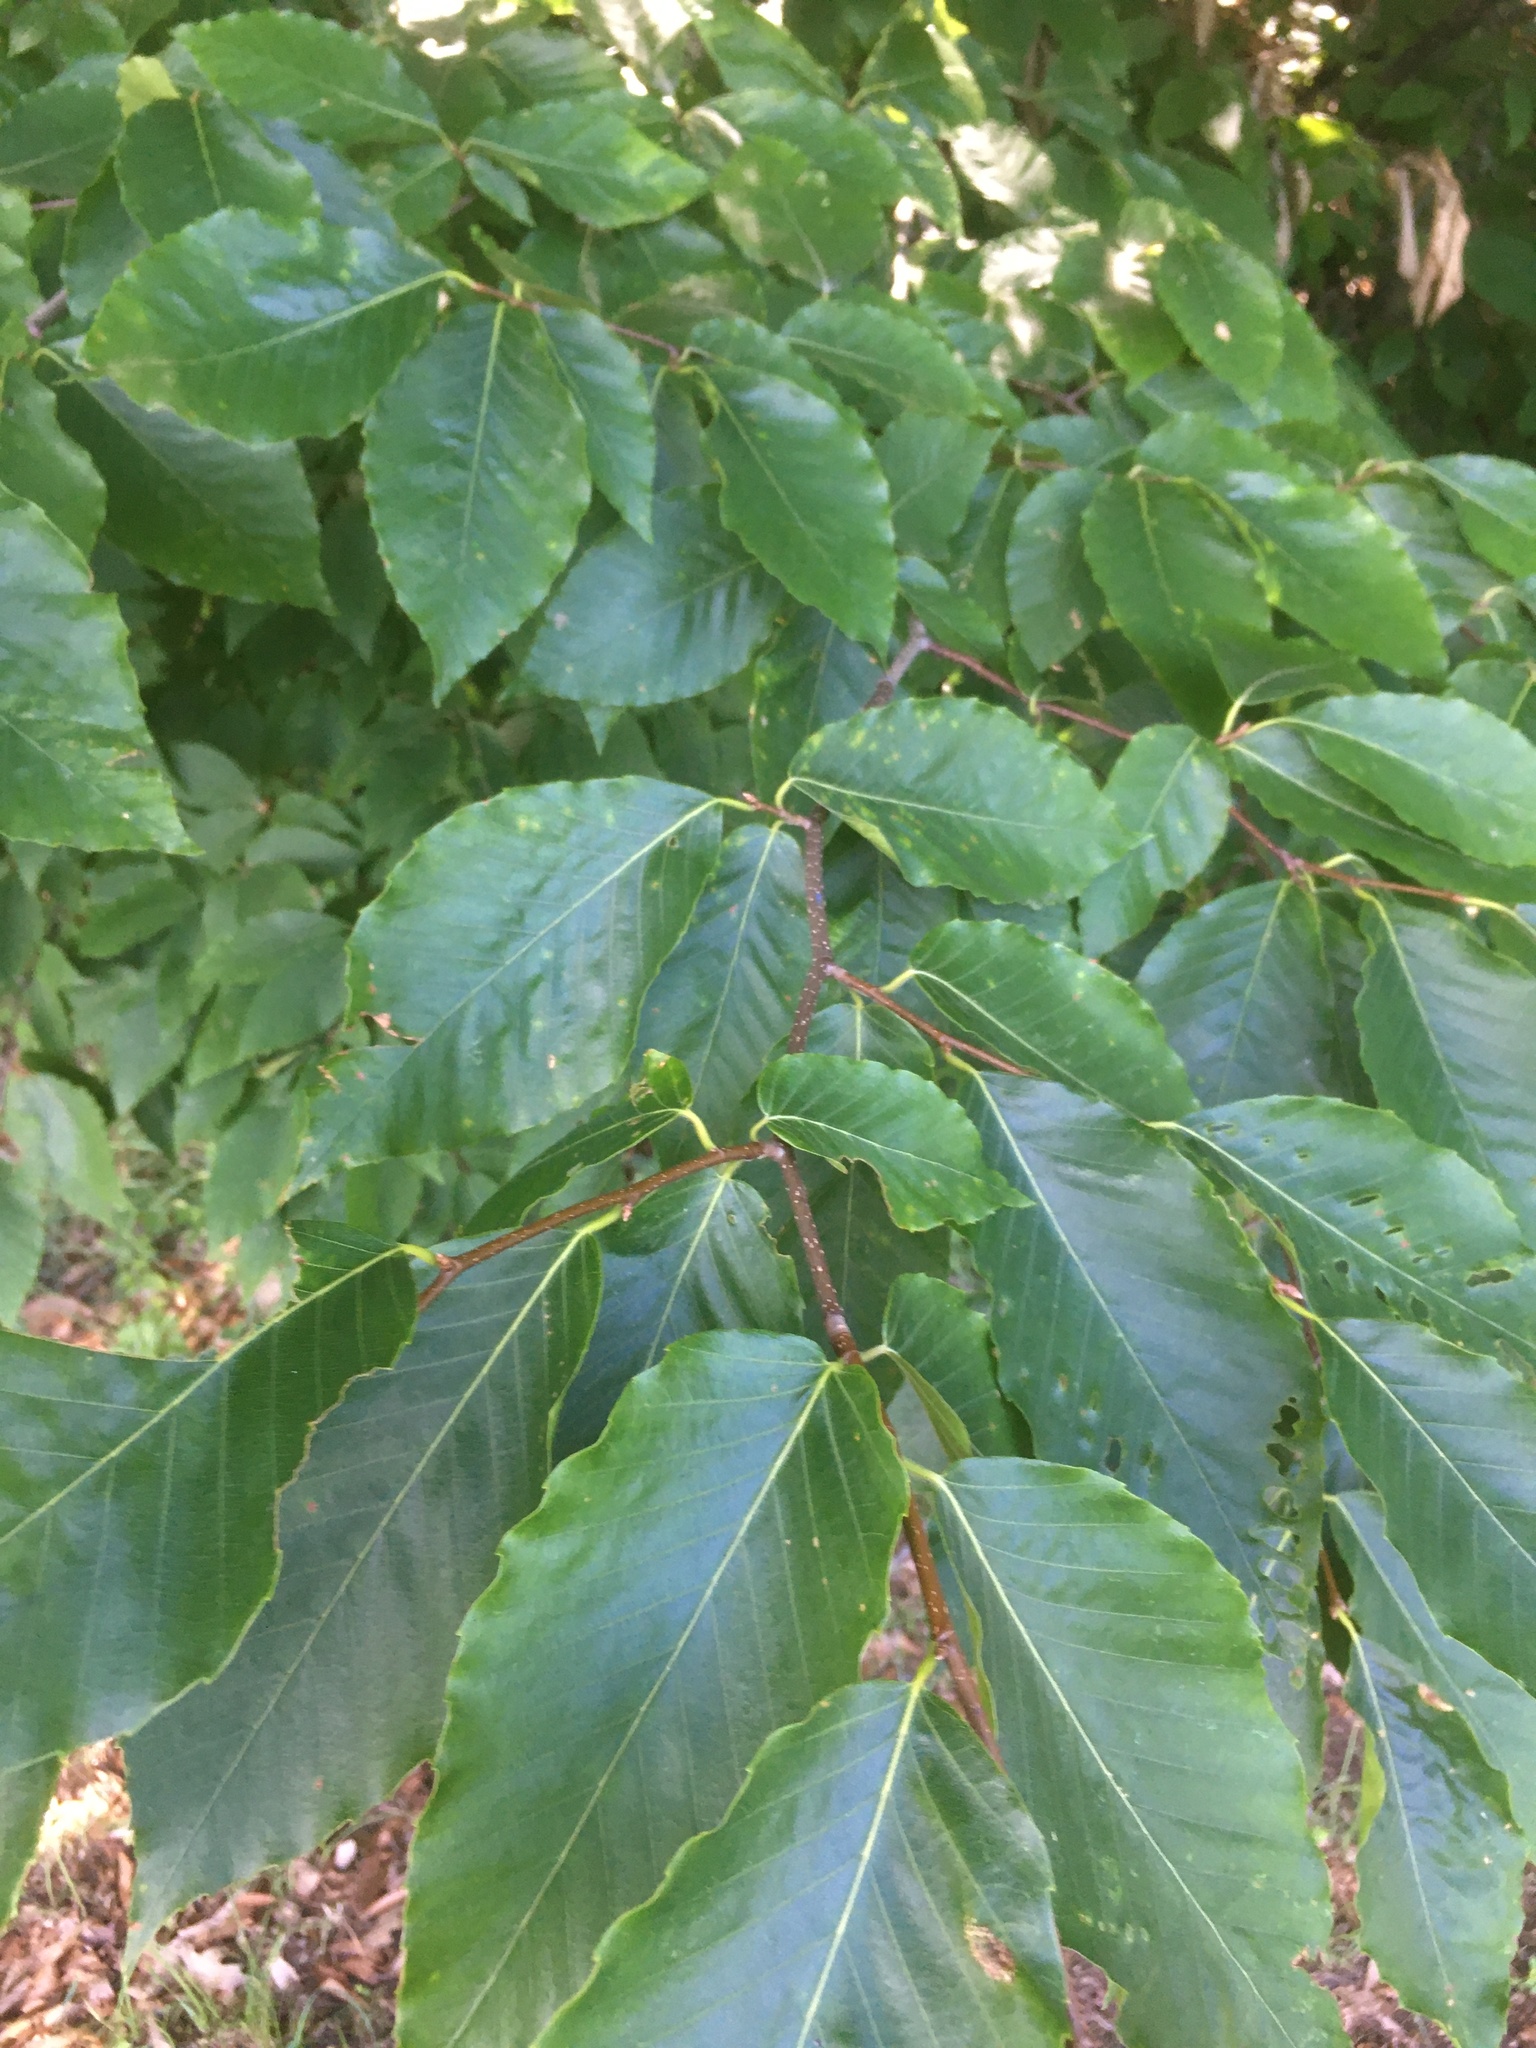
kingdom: Plantae
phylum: Tracheophyta
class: Magnoliopsida
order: Fagales
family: Fagaceae
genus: Fagus
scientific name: Fagus grandifolia
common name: American beech
